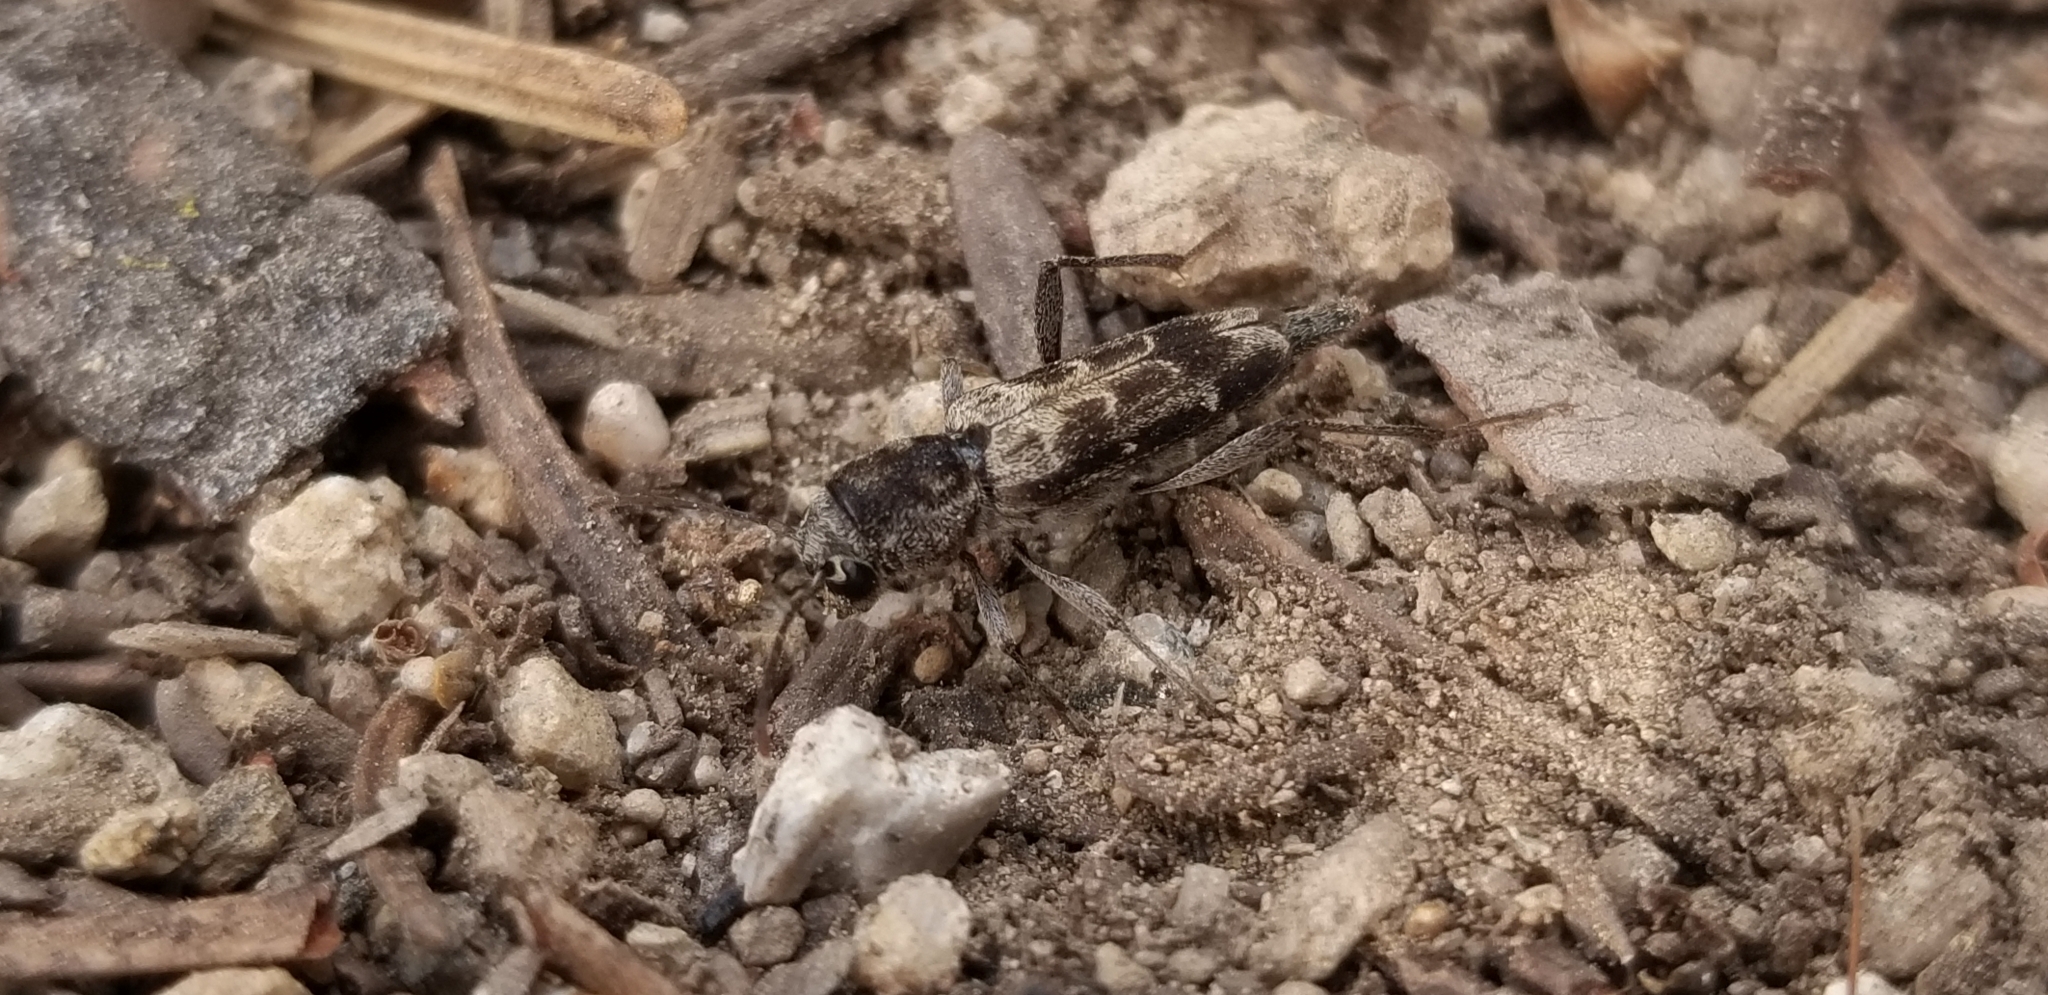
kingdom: Animalia
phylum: Arthropoda
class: Insecta
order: Coleoptera
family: Cerambycidae
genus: Xylotrechus
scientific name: Xylotrechus nauticus
